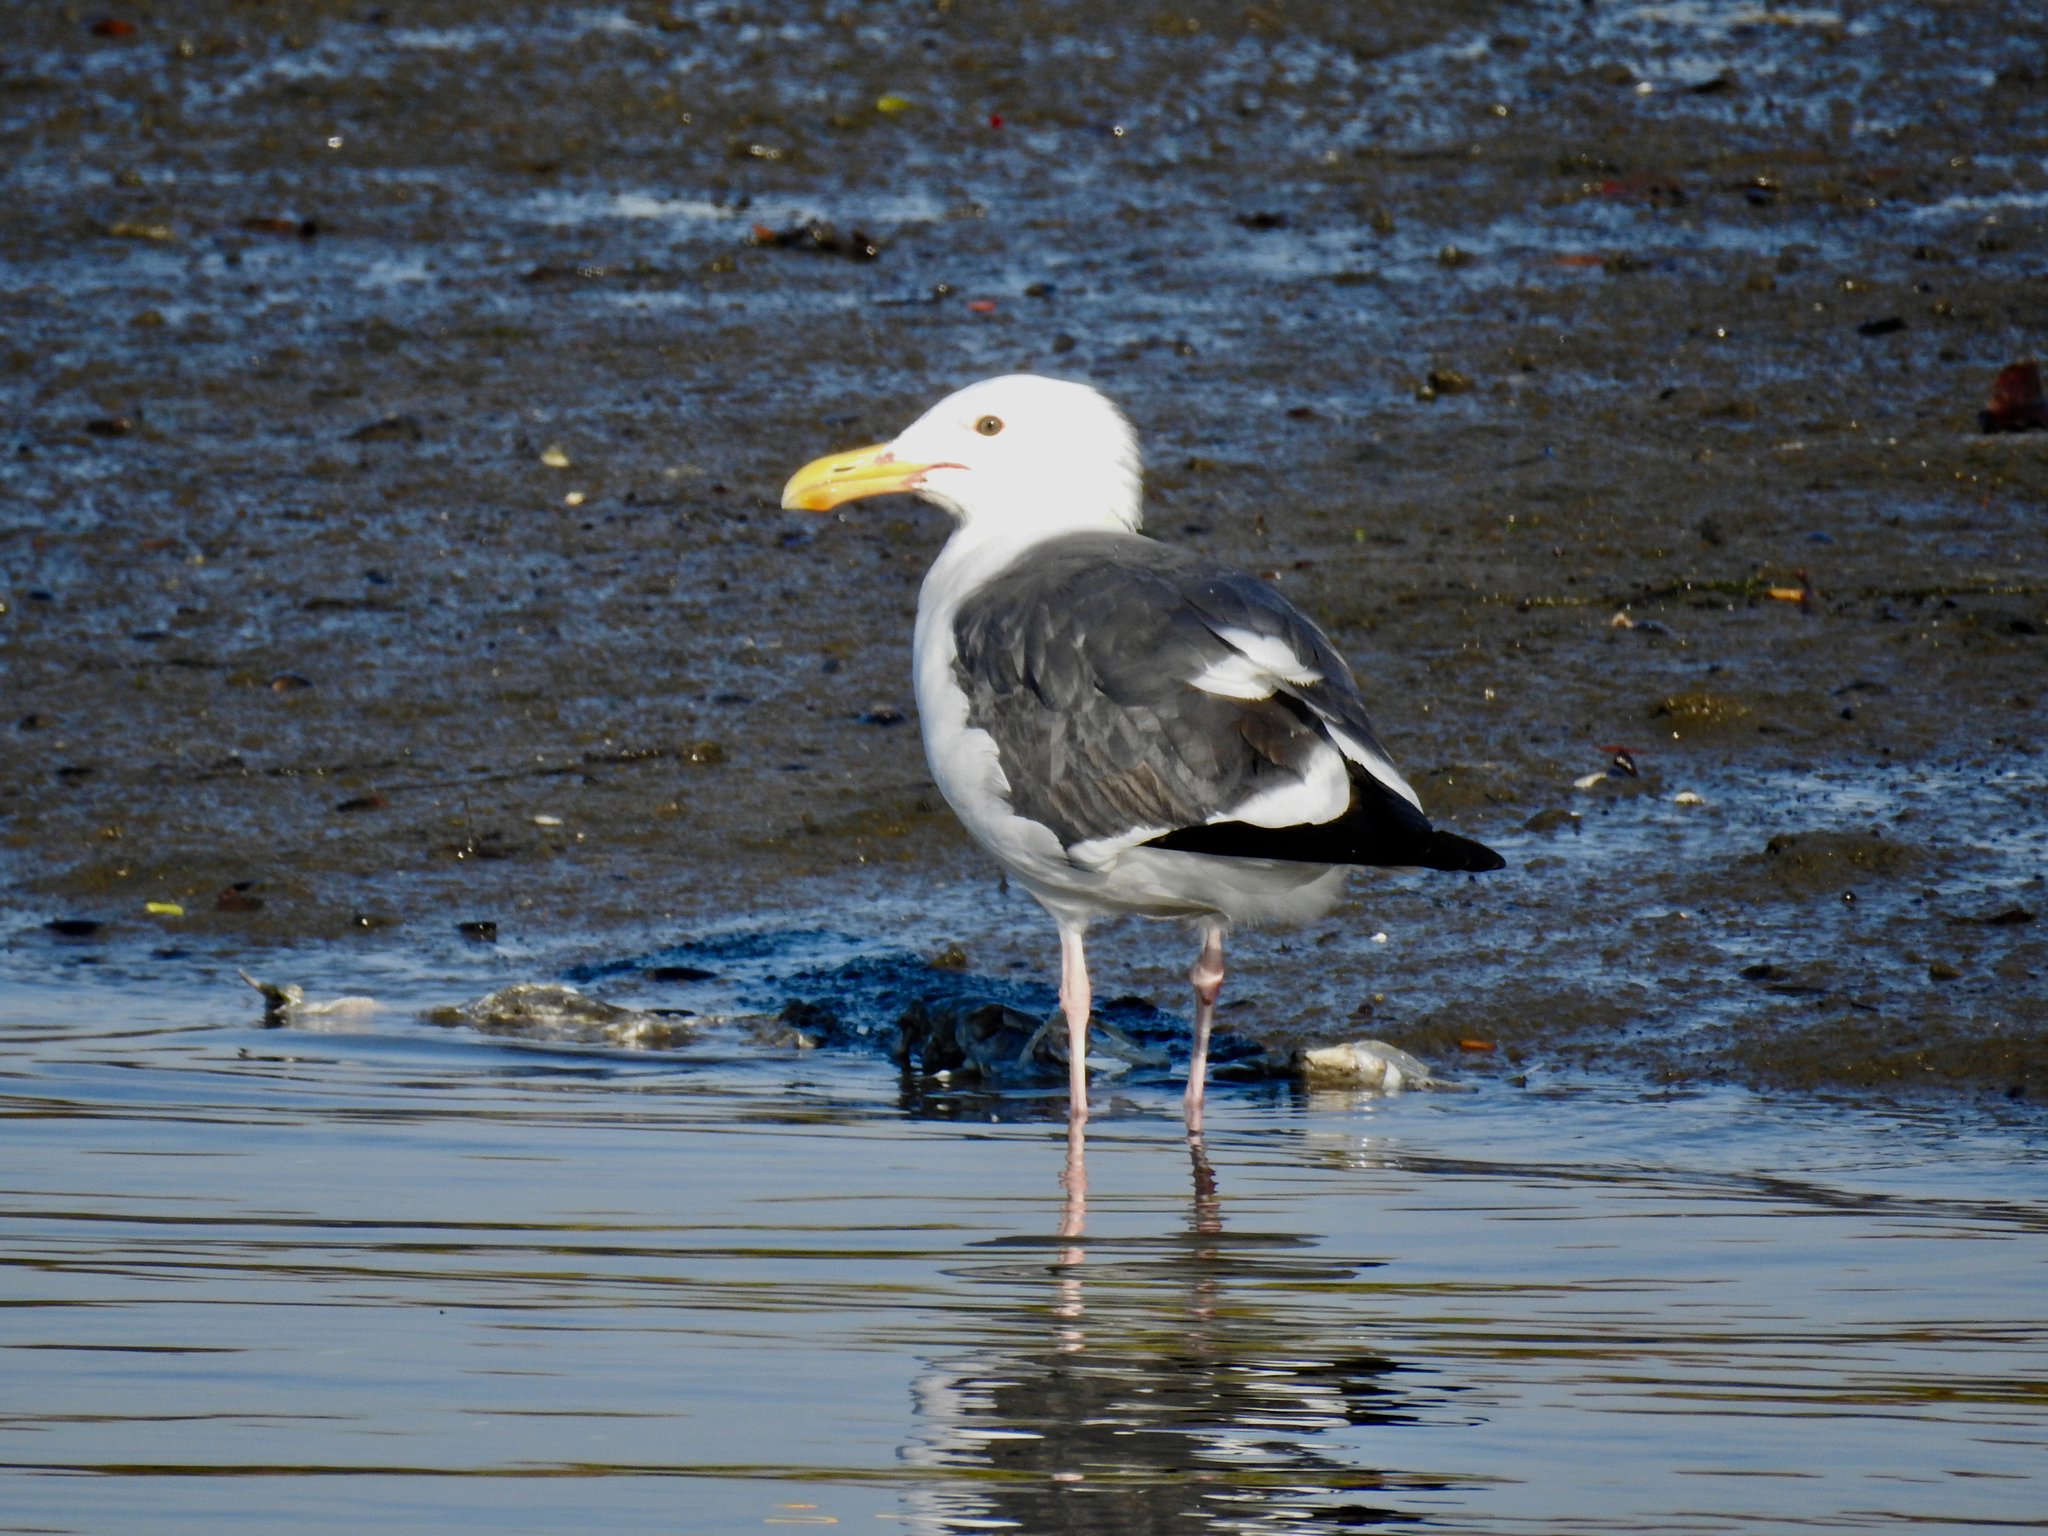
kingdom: Animalia
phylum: Chordata
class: Aves
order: Charadriiformes
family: Laridae
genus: Larus
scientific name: Larus occidentalis
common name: Western gull
